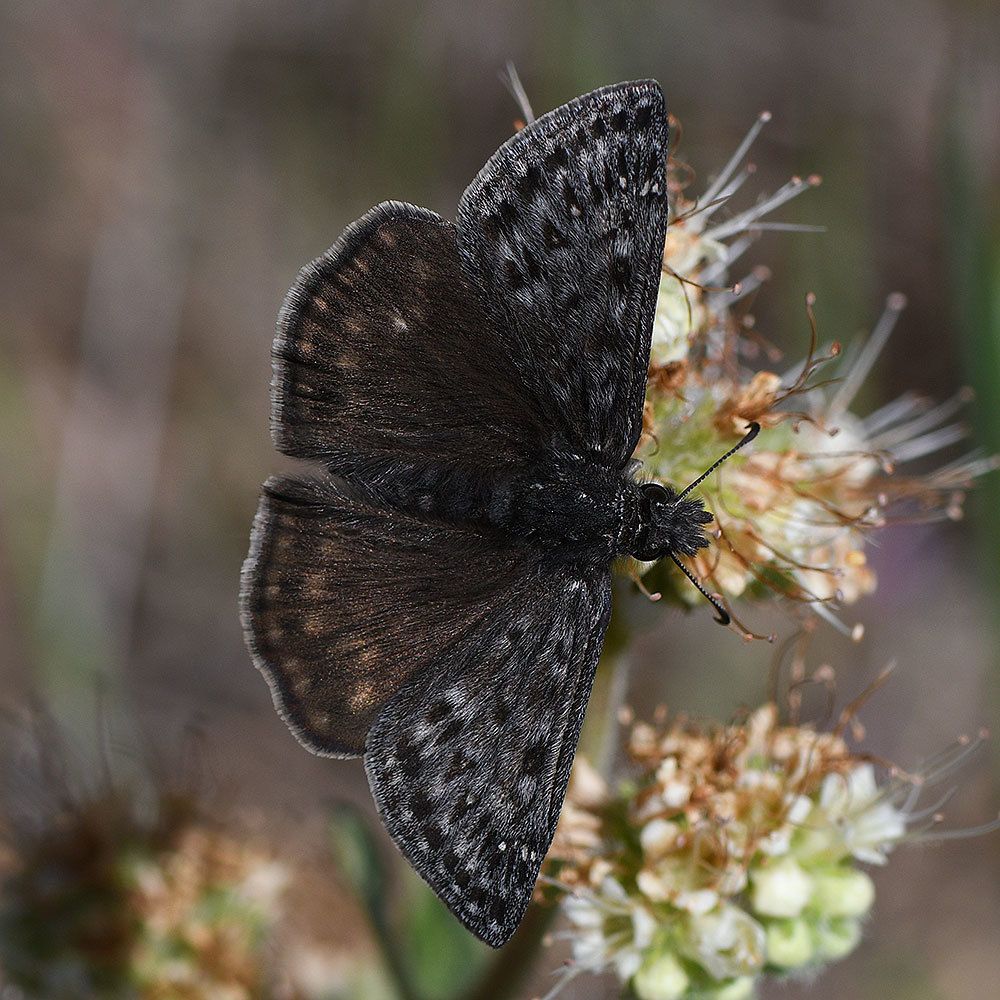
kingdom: Animalia
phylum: Arthropoda
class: Insecta
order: Lepidoptera
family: Hesperiidae
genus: Erynnis
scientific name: Erynnis propertius
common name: Propertius duskywing
